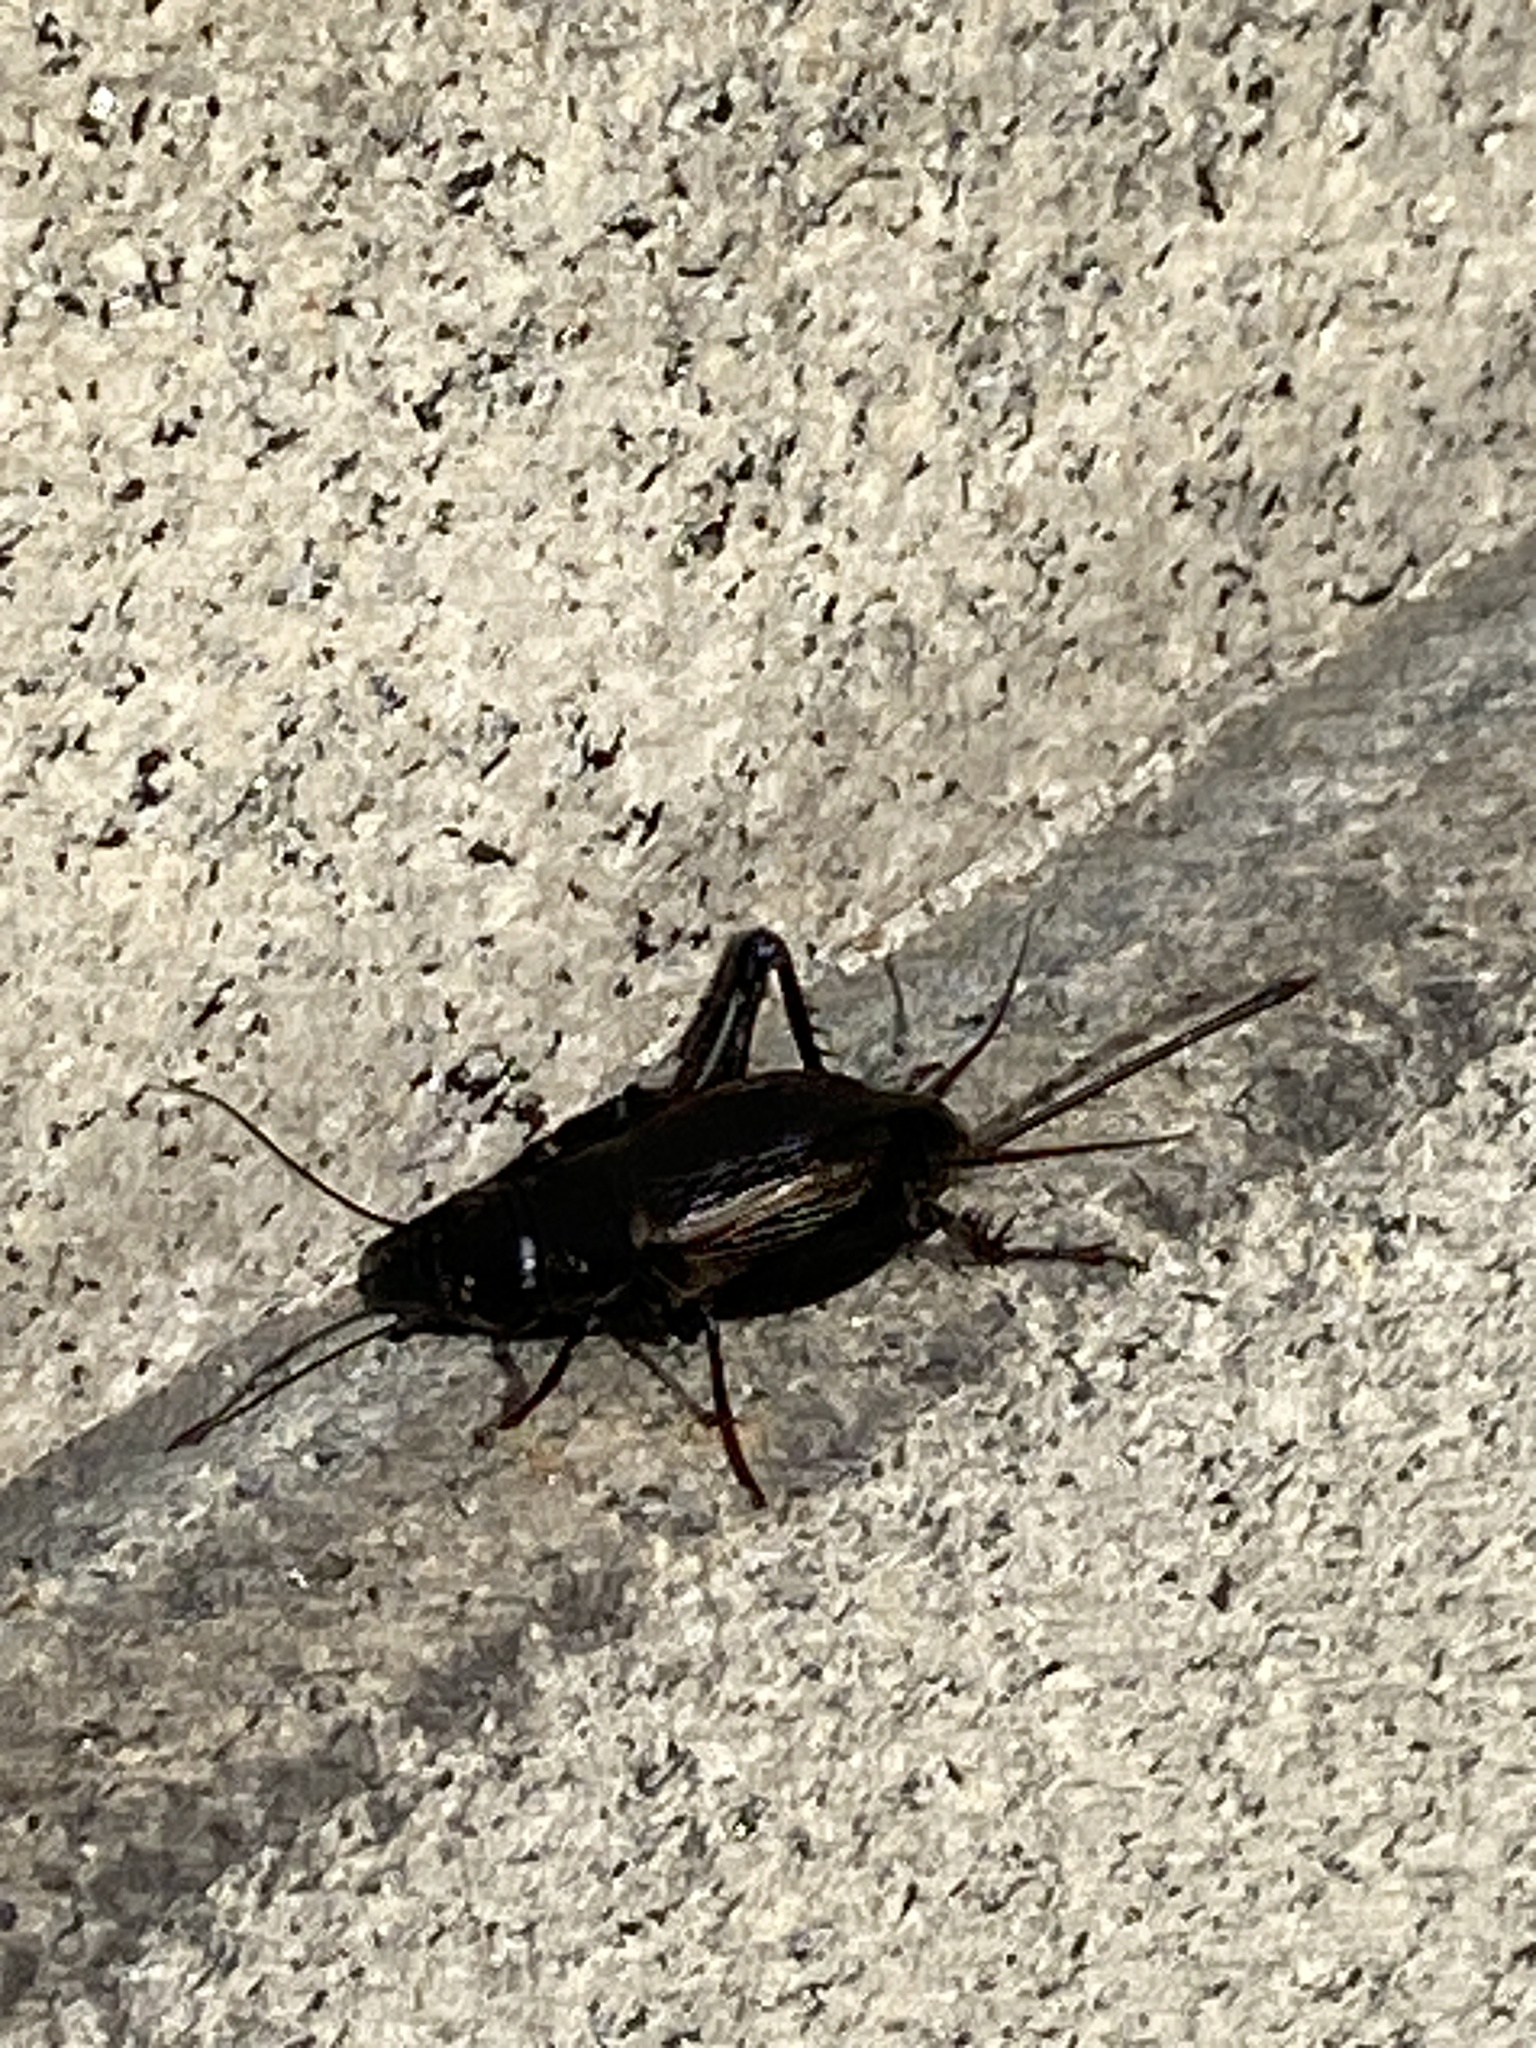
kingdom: Animalia
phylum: Arthropoda
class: Insecta
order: Orthoptera
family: Gryllidae
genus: Gryllus
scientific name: Gryllus pennsylvanicus
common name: Fall field cricket
